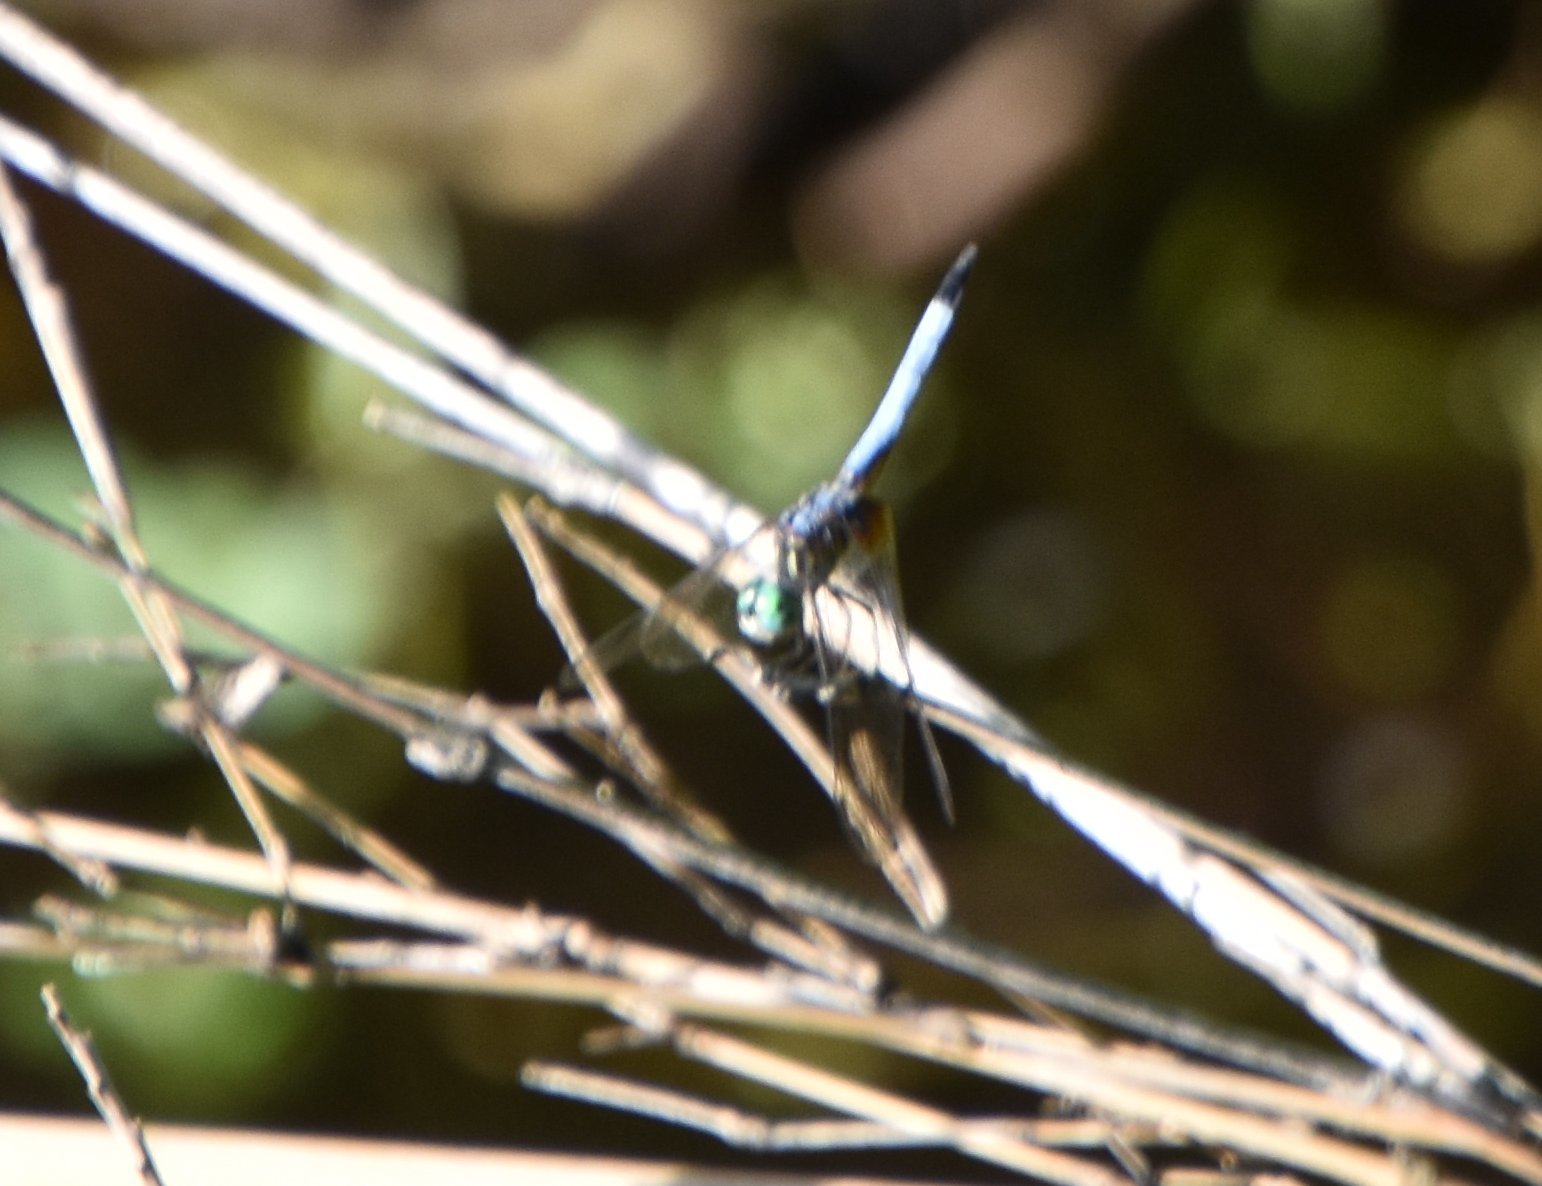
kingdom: Animalia
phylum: Arthropoda
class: Insecta
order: Odonata
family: Libellulidae
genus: Pachydiplax
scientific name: Pachydiplax longipennis
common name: Blue dasher
